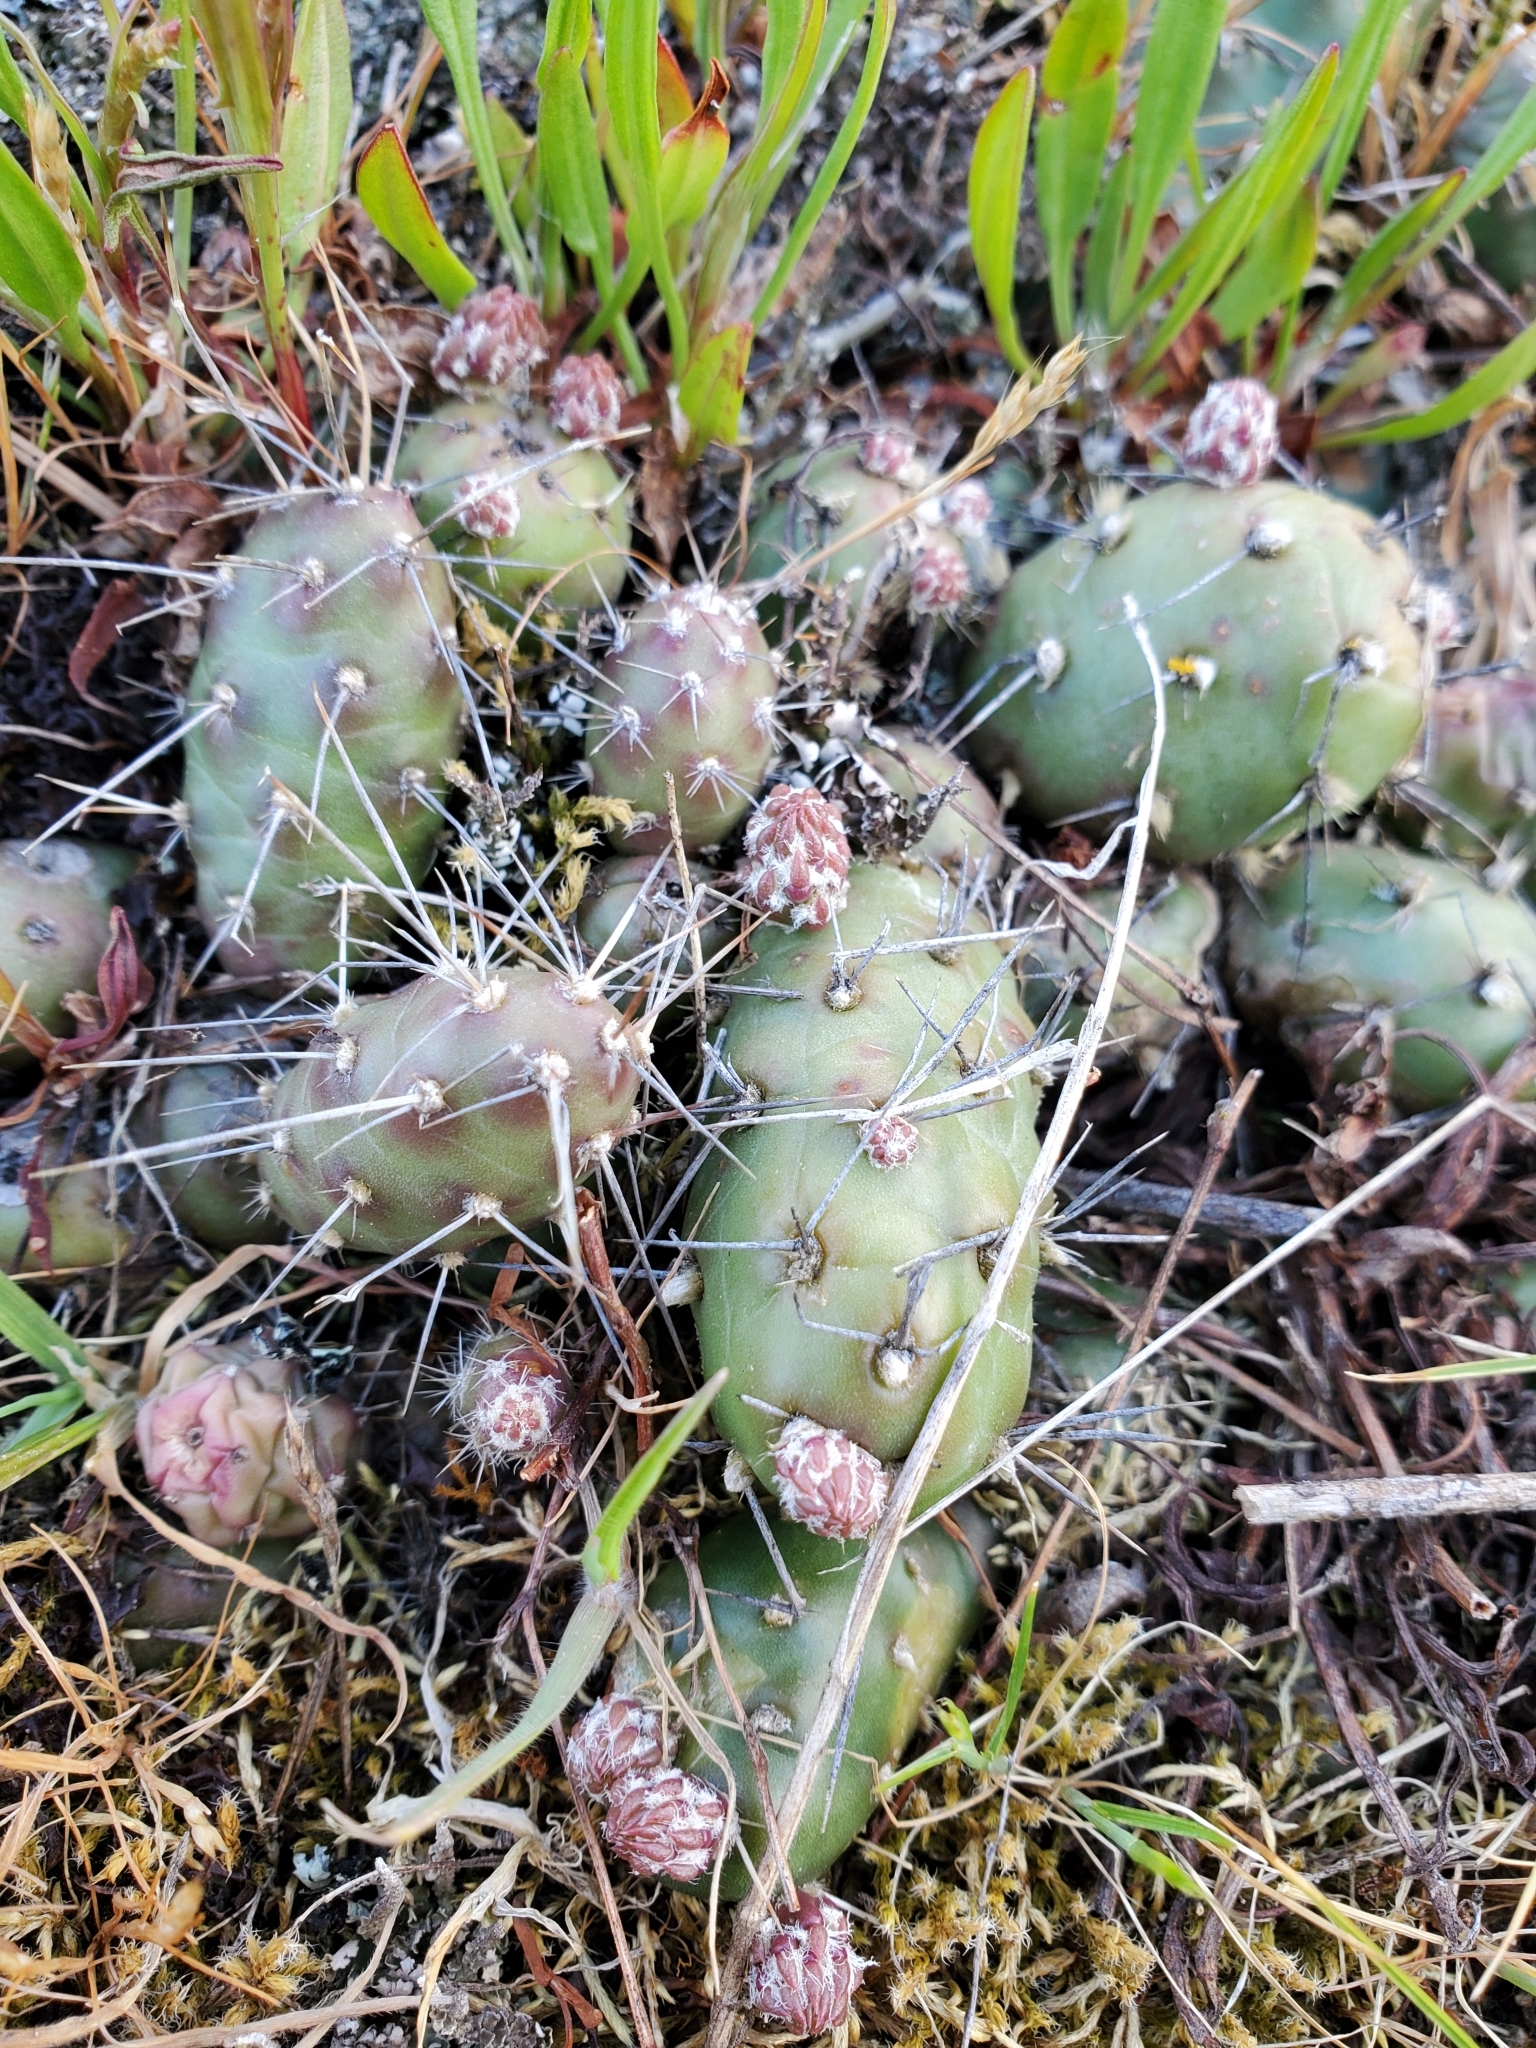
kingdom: Plantae
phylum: Tracheophyta
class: Magnoliopsida
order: Caryophyllales
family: Cactaceae
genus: Opuntia
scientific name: Opuntia fragilis
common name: Brittle cactus
